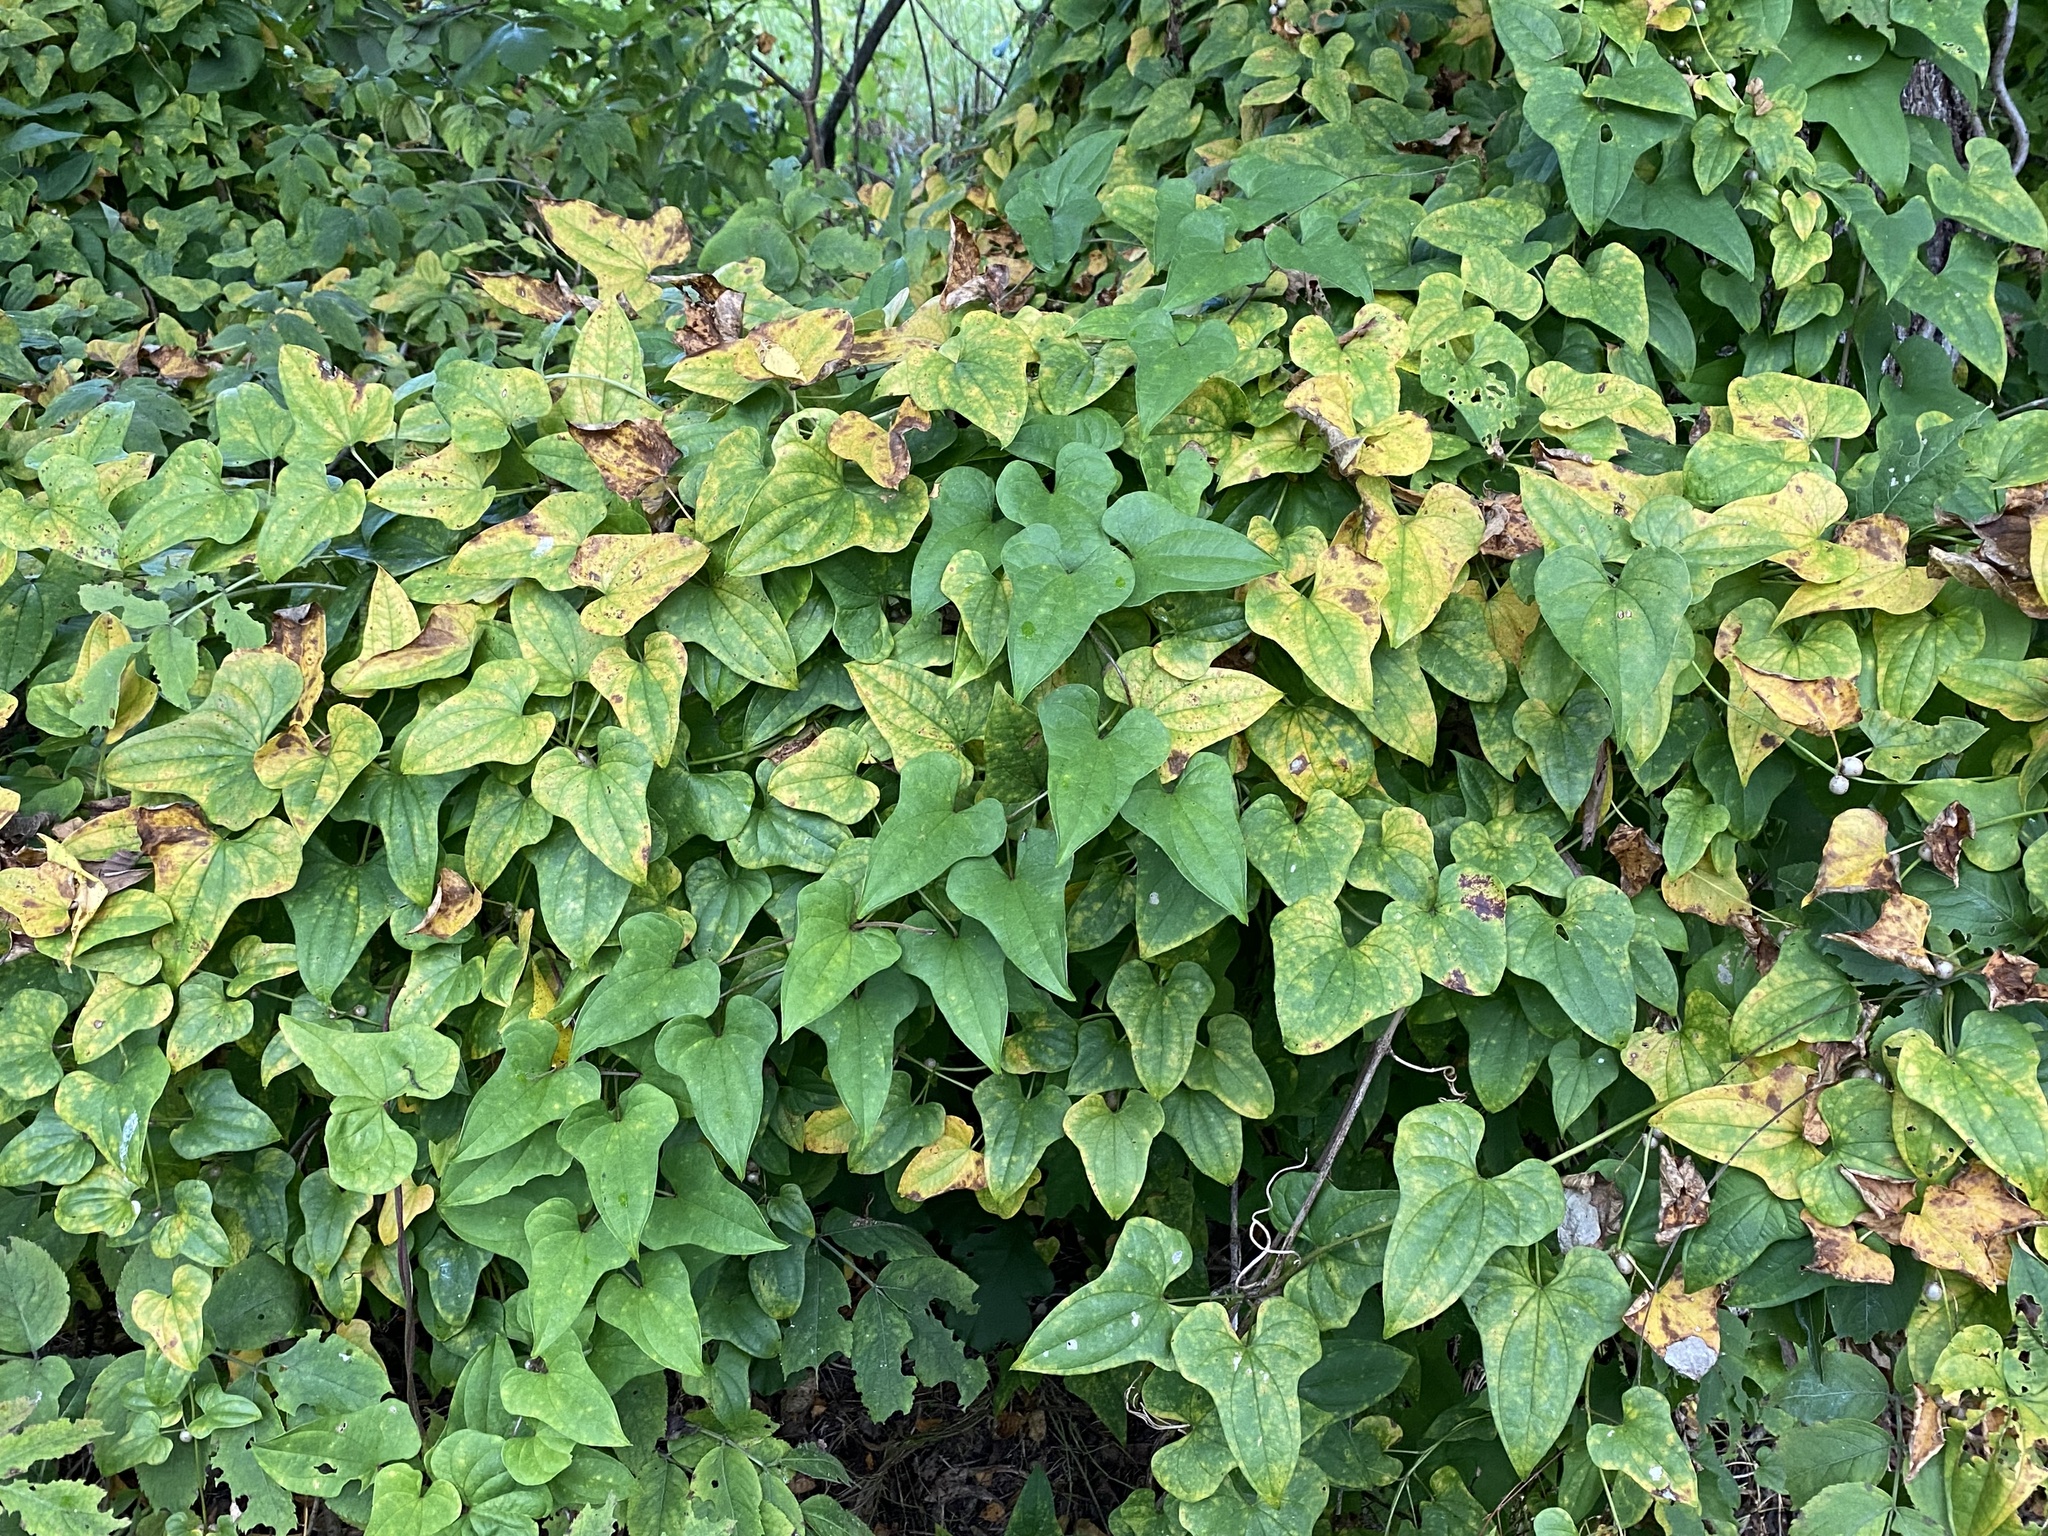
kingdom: Plantae
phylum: Tracheophyta
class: Liliopsida
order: Dioscoreales
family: Dioscoreaceae
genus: Dioscorea
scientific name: Dioscorea polystachya
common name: Chinese yam
